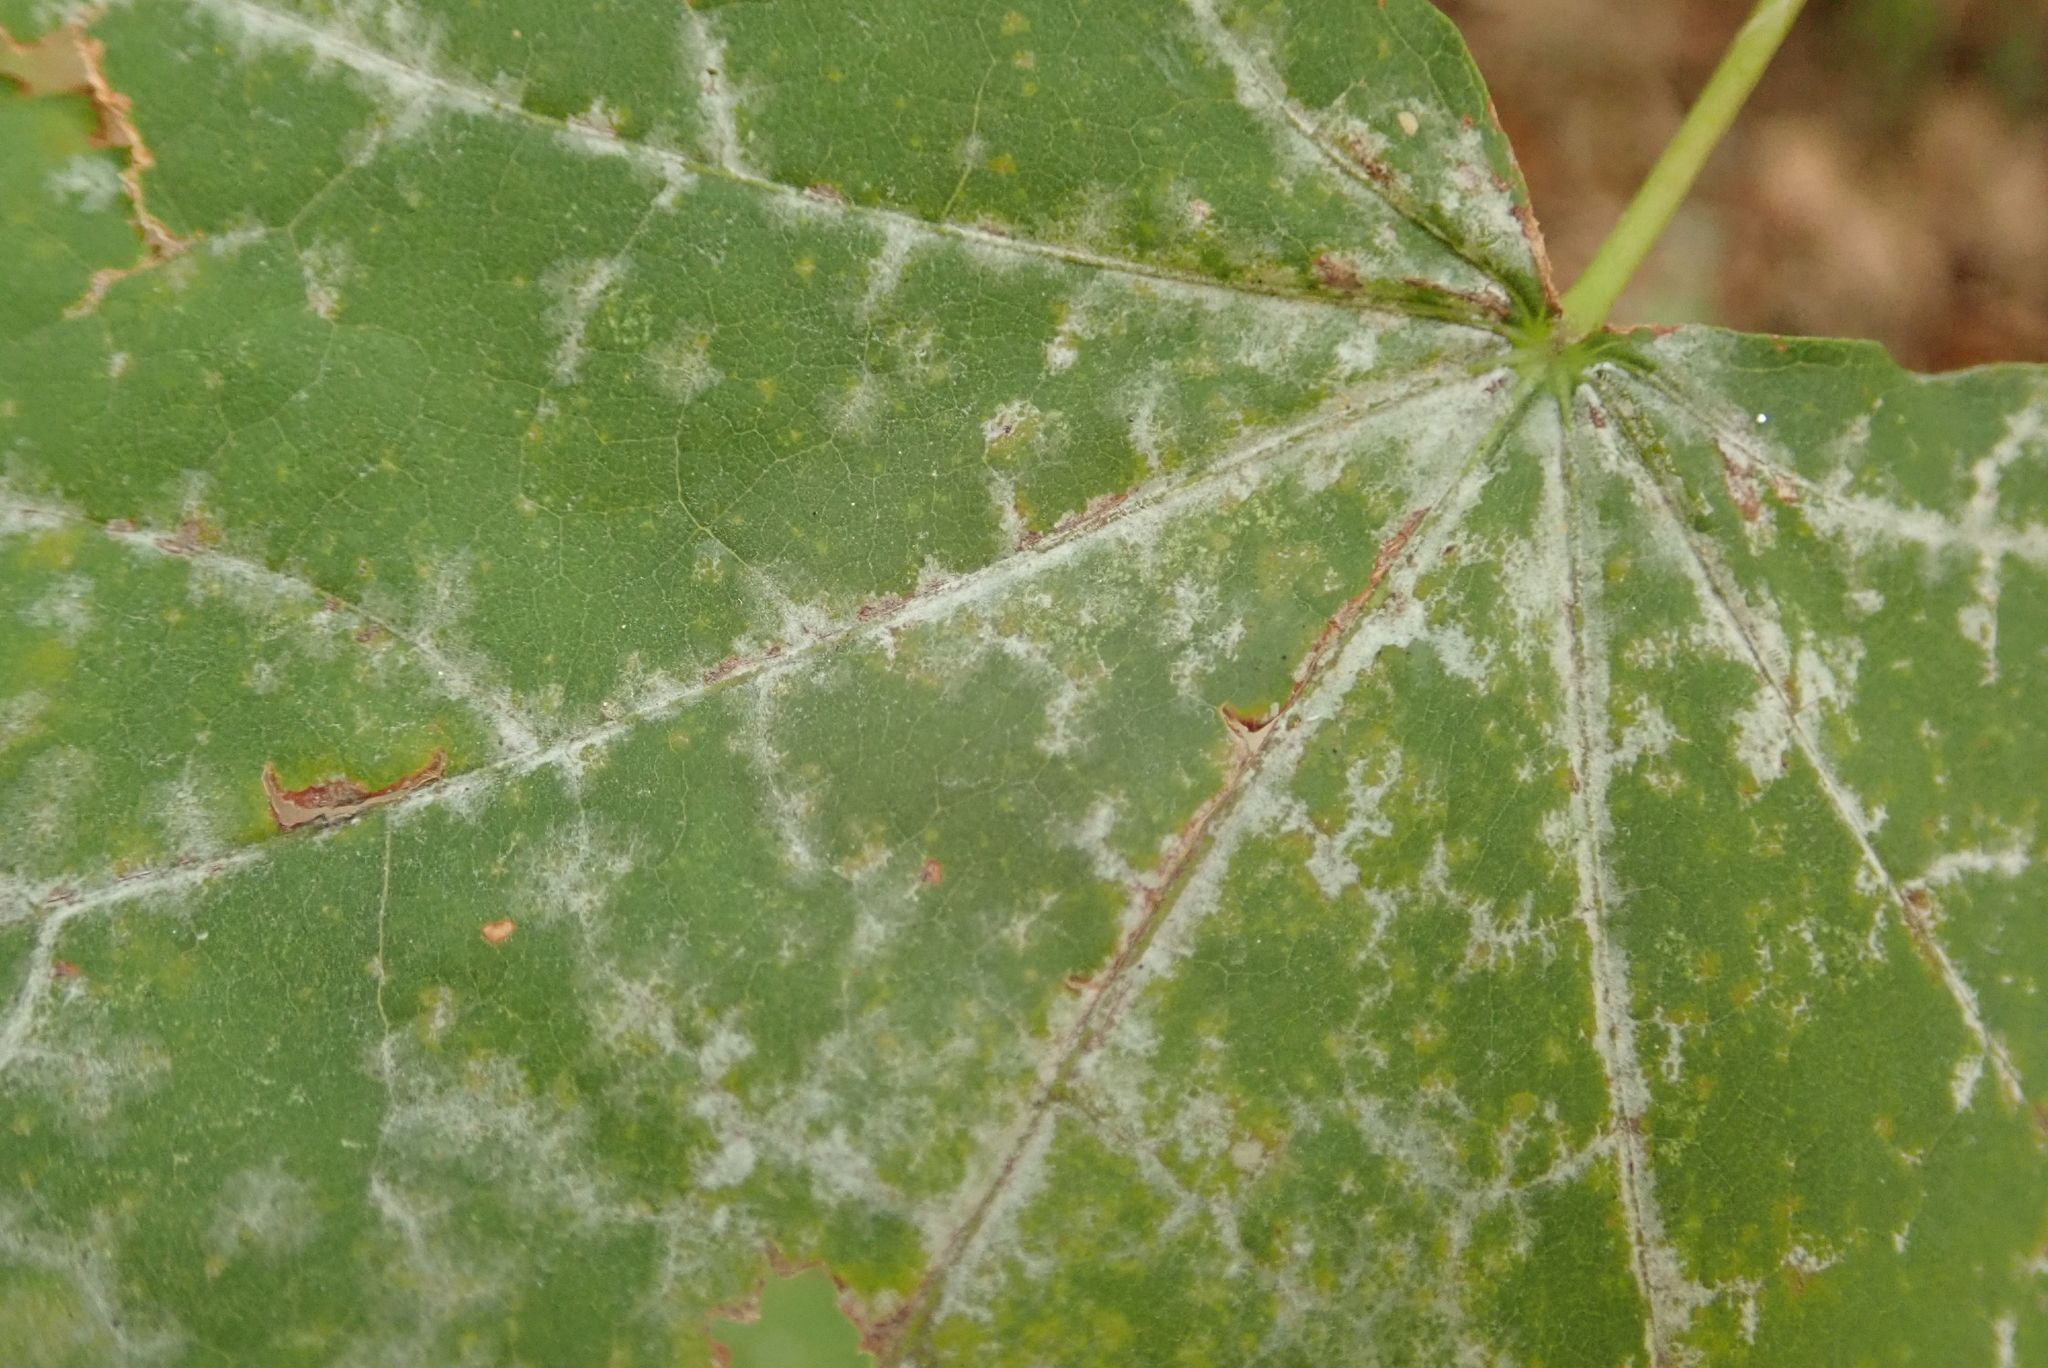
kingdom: Fungi
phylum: Ascomycota
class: Leotiomycetes
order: Helotiales
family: Erysiphaceae
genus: Sawadaea
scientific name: Sawadaea tulasnei
